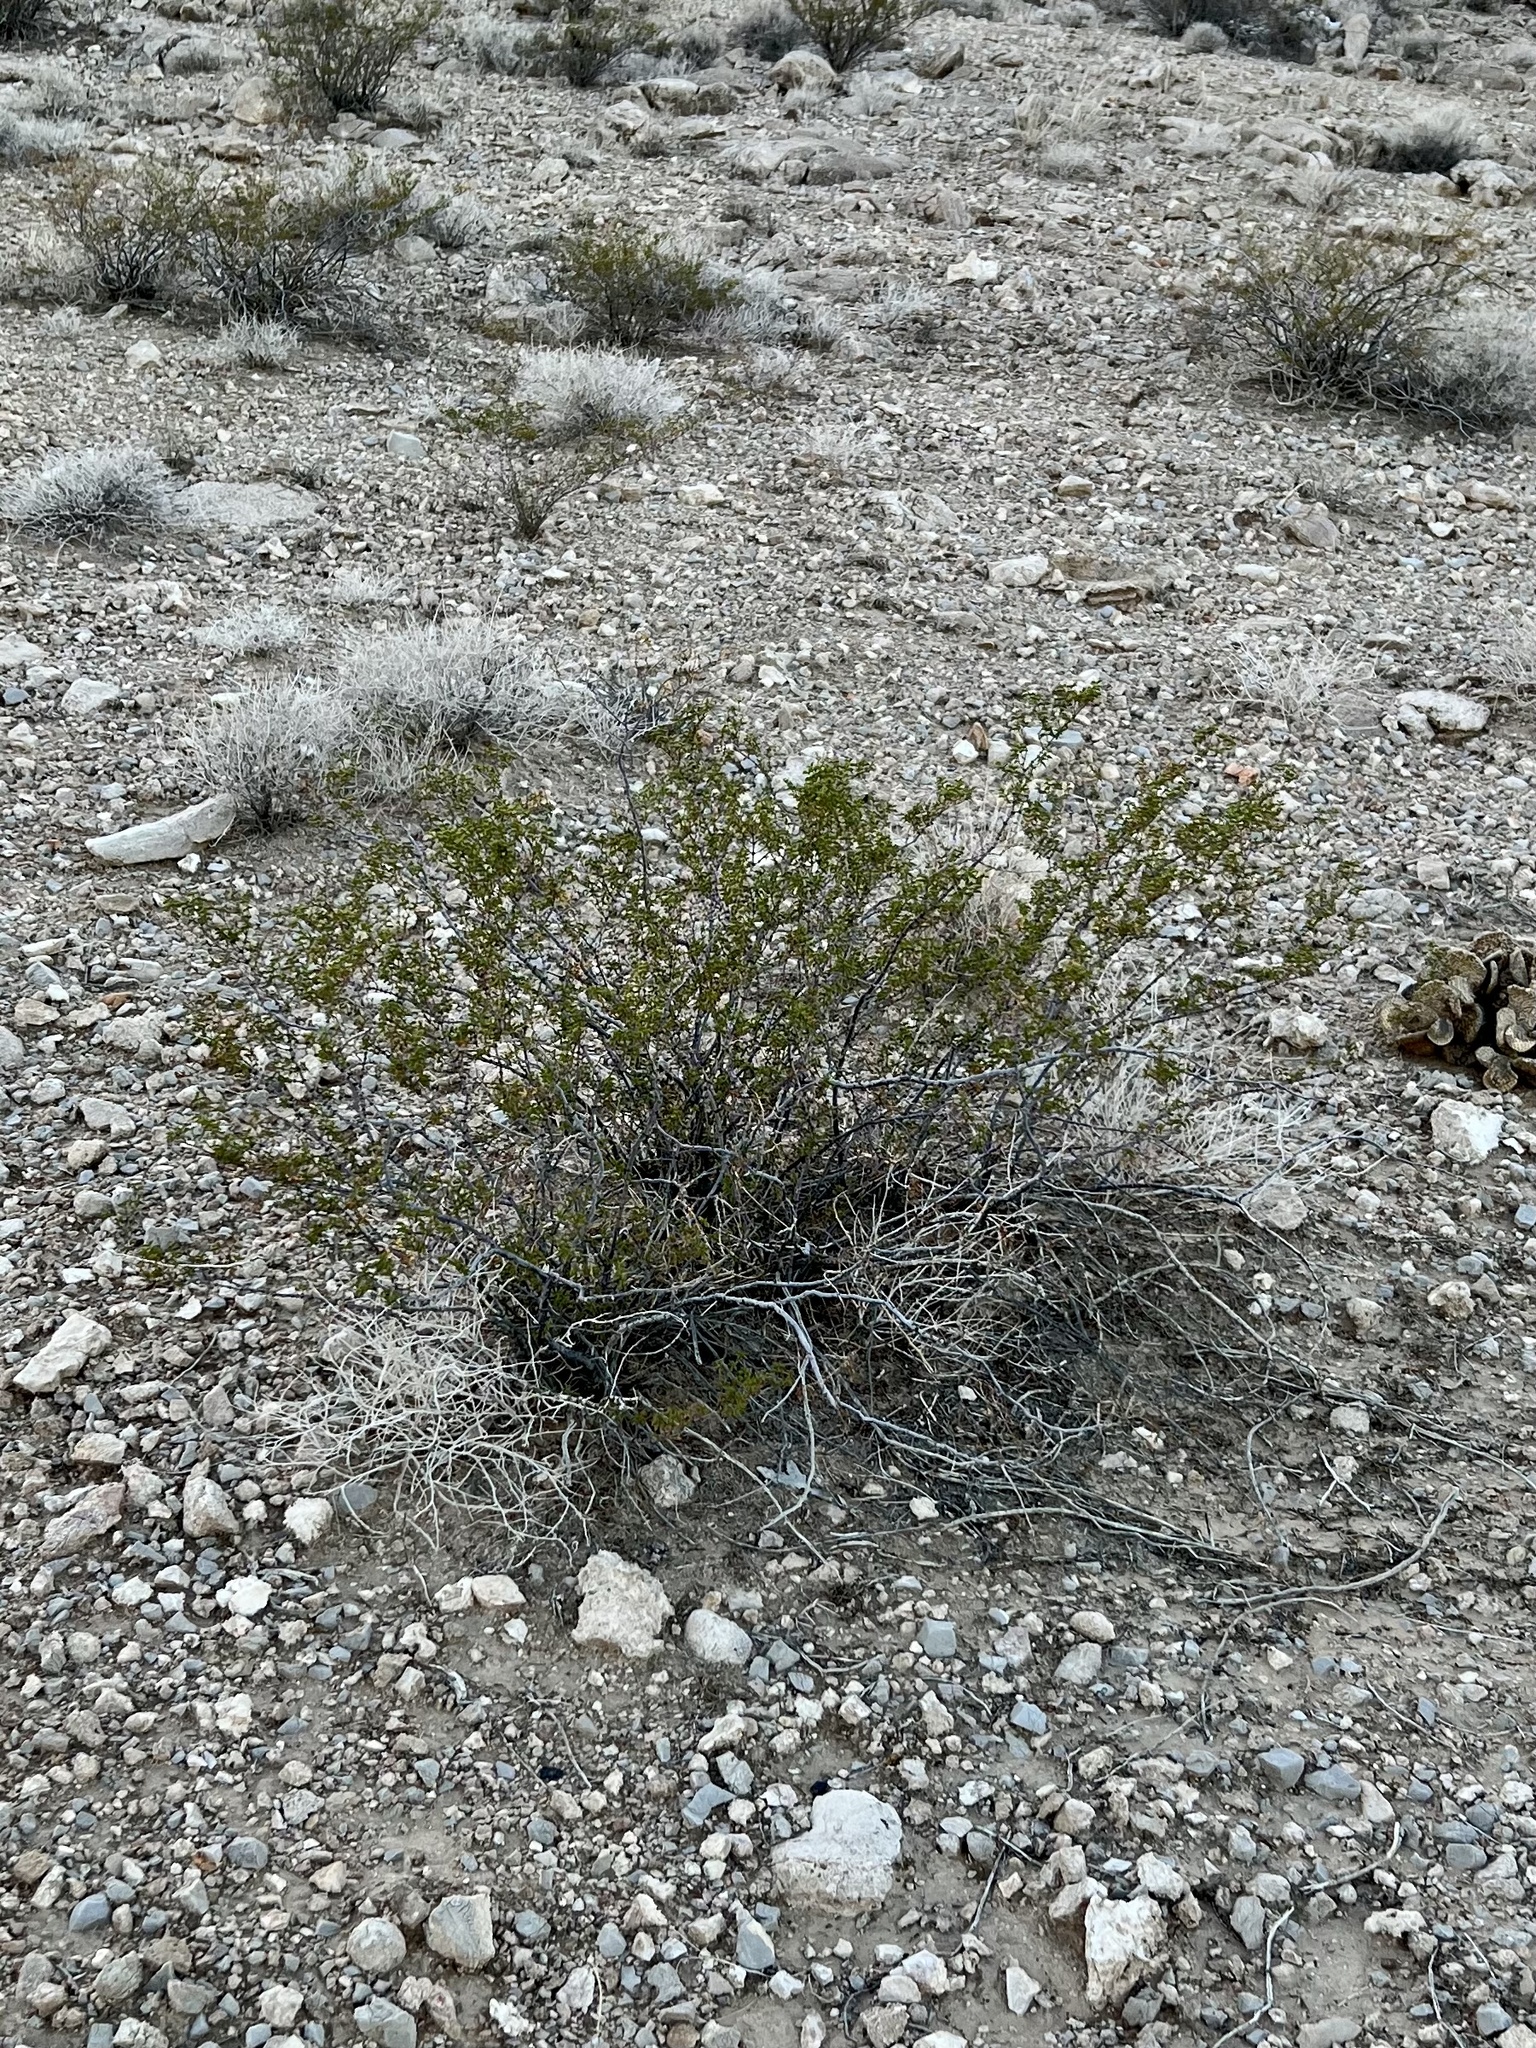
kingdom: Plantae
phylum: Tracheophyta
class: Magnoliopsida
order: Zygophyllales
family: Zygophyllaceae
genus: Larrea
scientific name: Larrea tridentata
